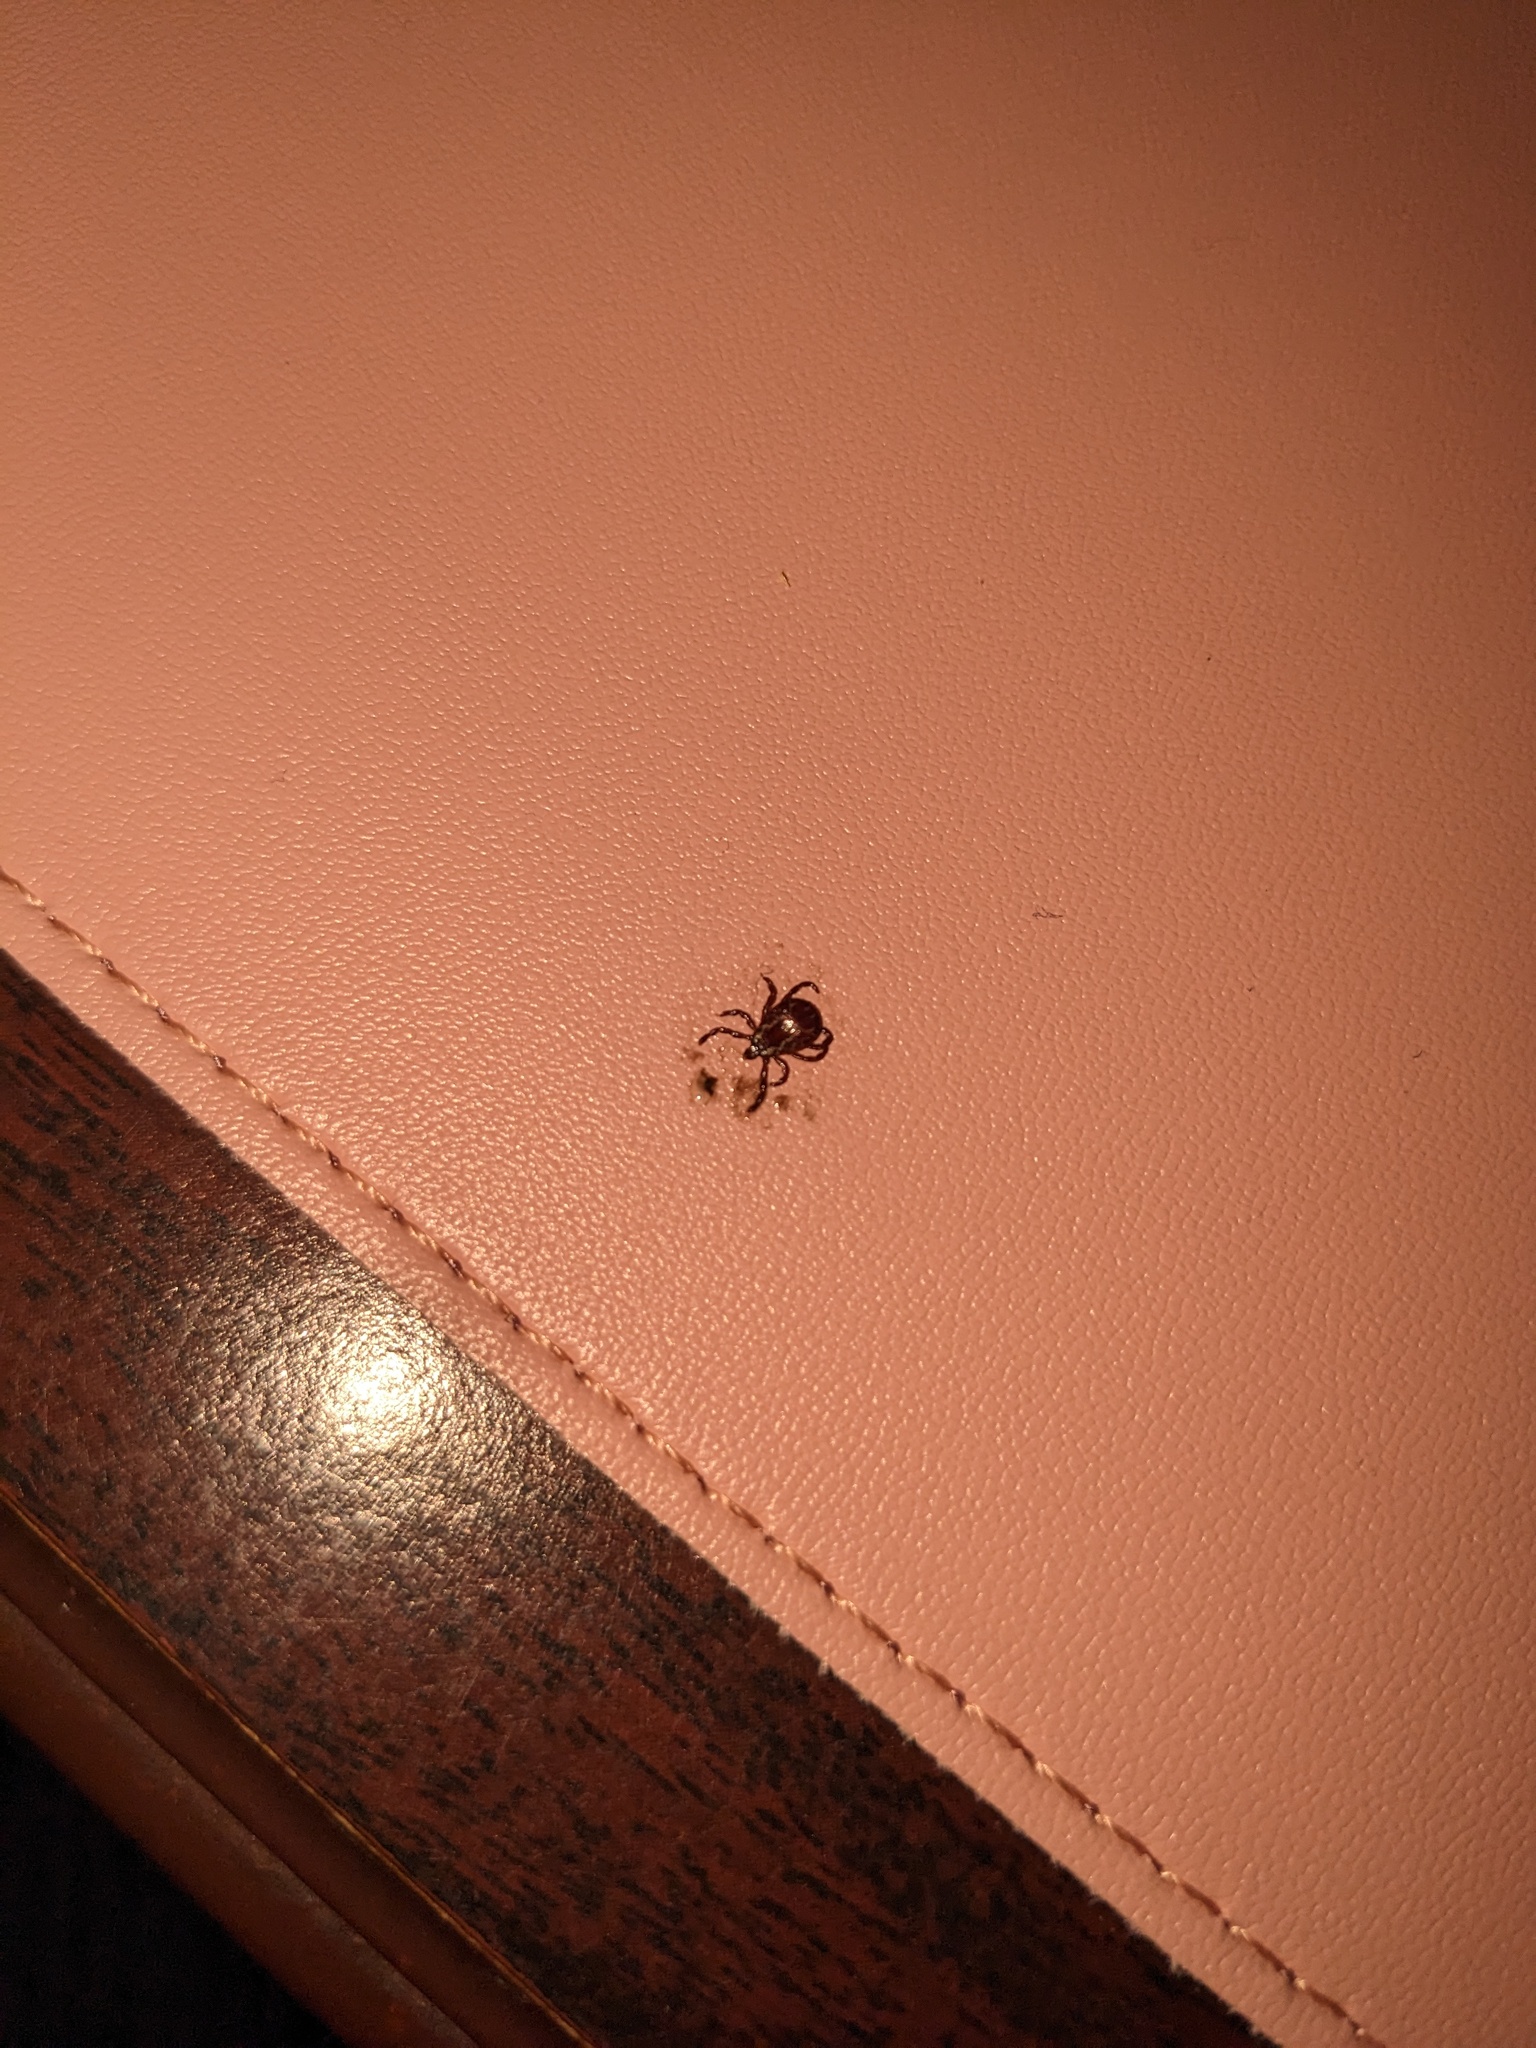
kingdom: Animalia
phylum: Arthropoda
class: Arachnida
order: Ixodida
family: Ixodidae
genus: Dermacentor
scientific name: Dermacentor variabilis
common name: American dog tick
